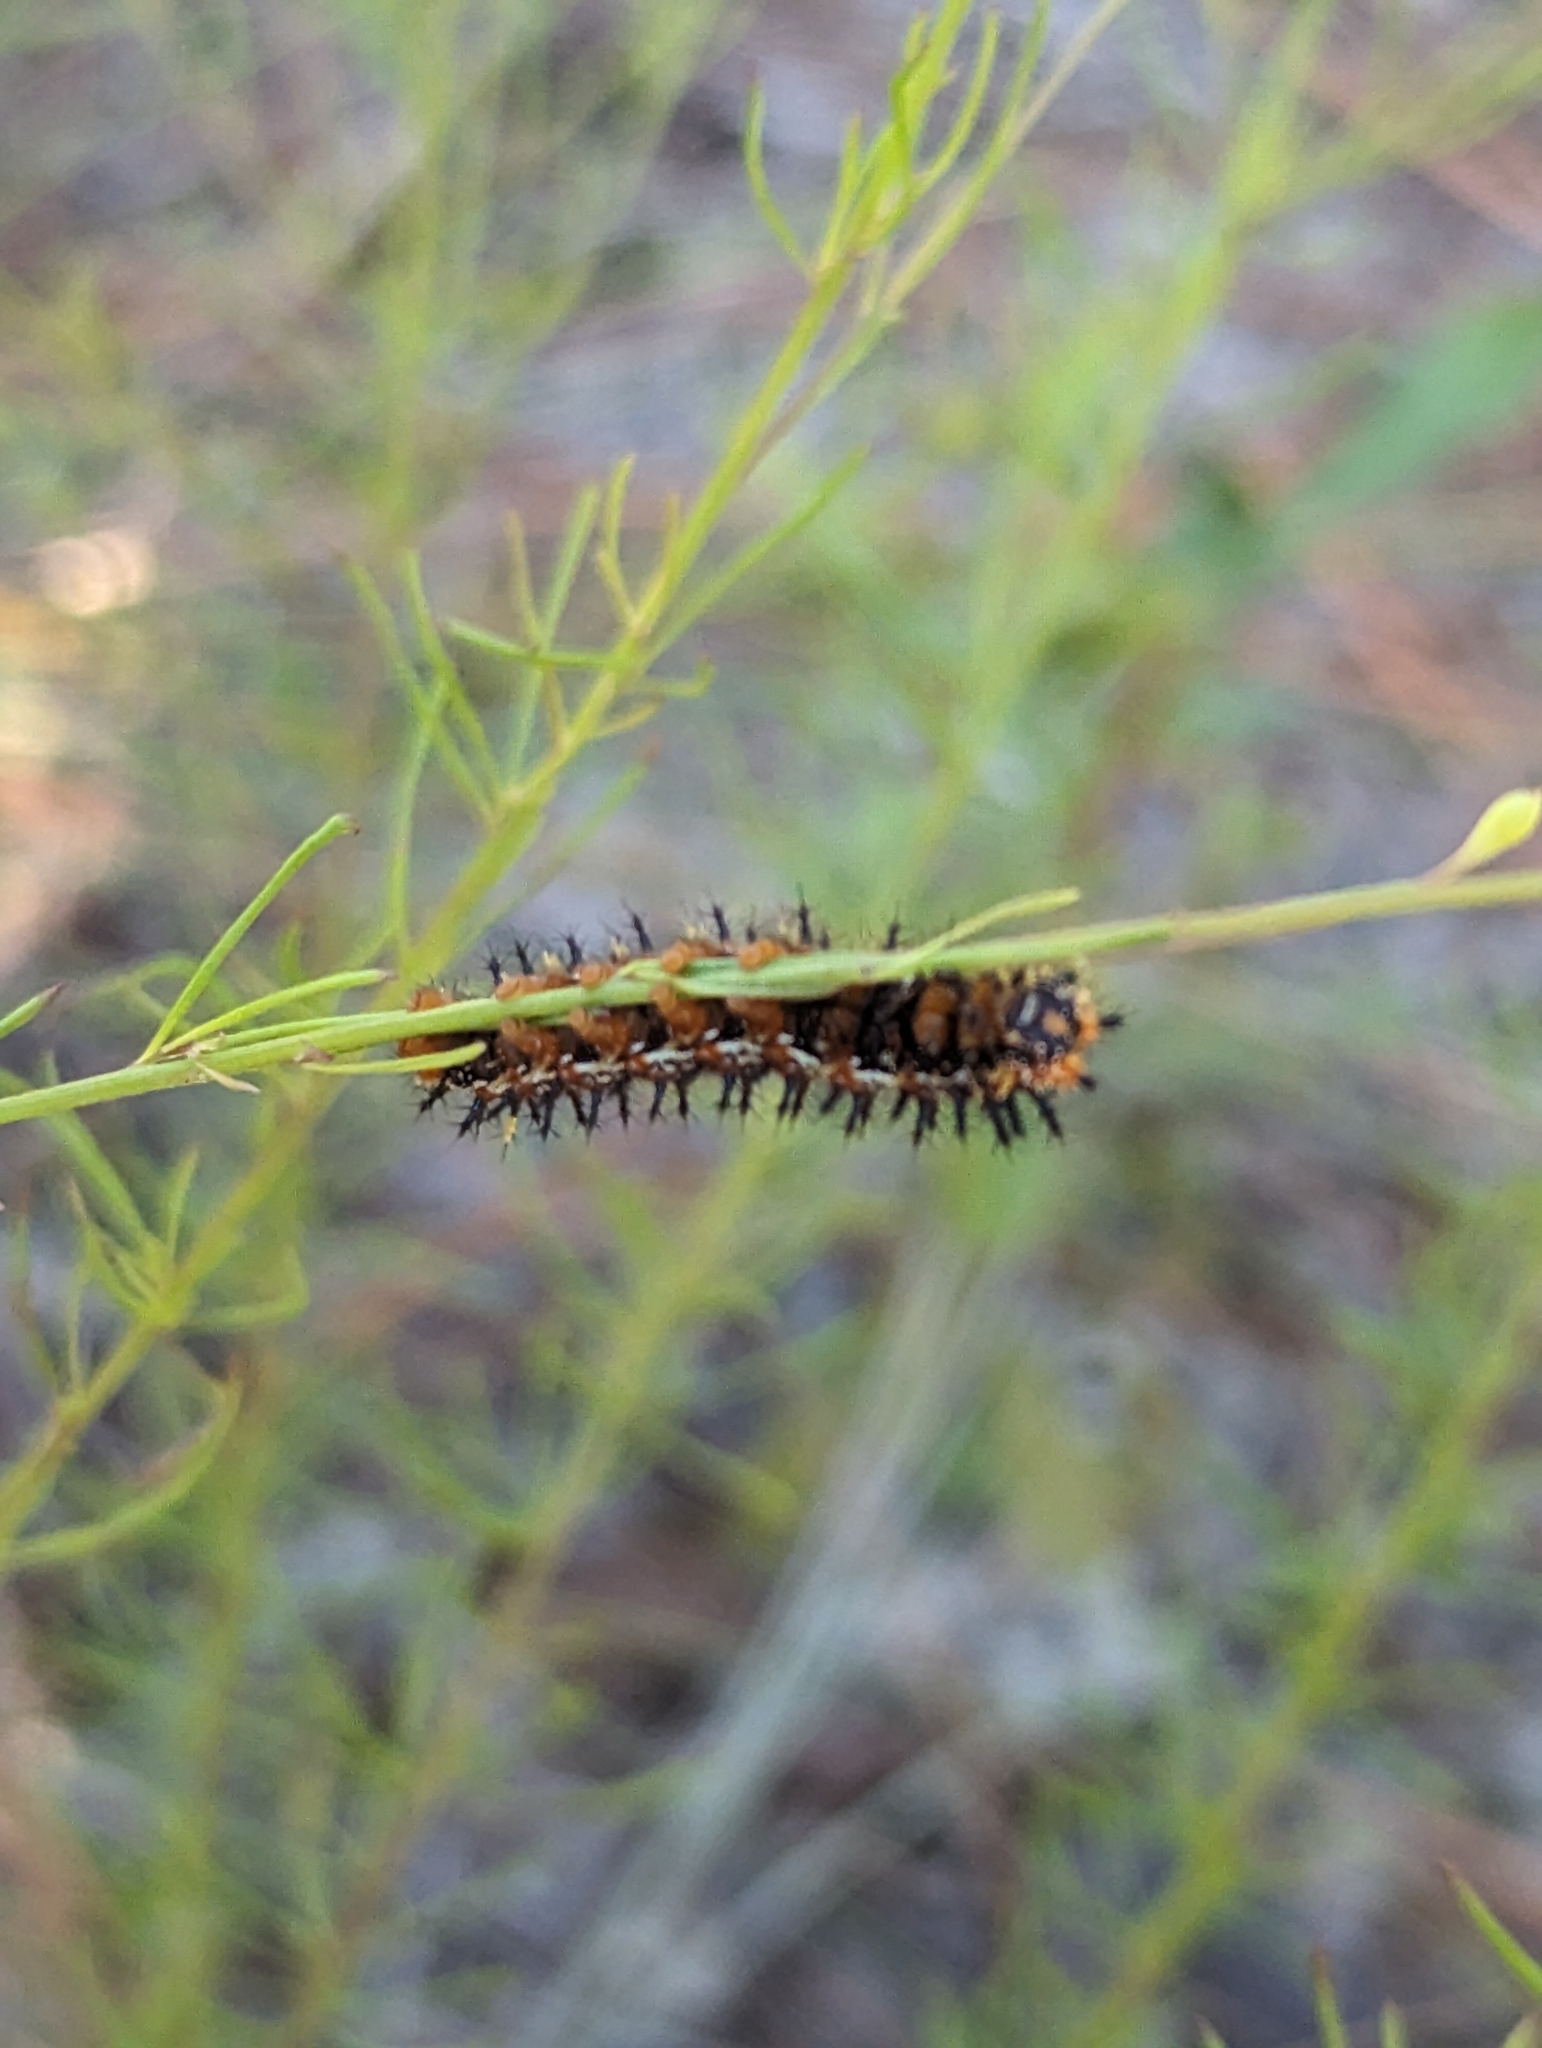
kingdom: Animalia
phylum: Arthropoda
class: Insecta
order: Lepidoptera
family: Nymphalidae
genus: Junonia
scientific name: Junonia coenia
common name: Common buckeye
